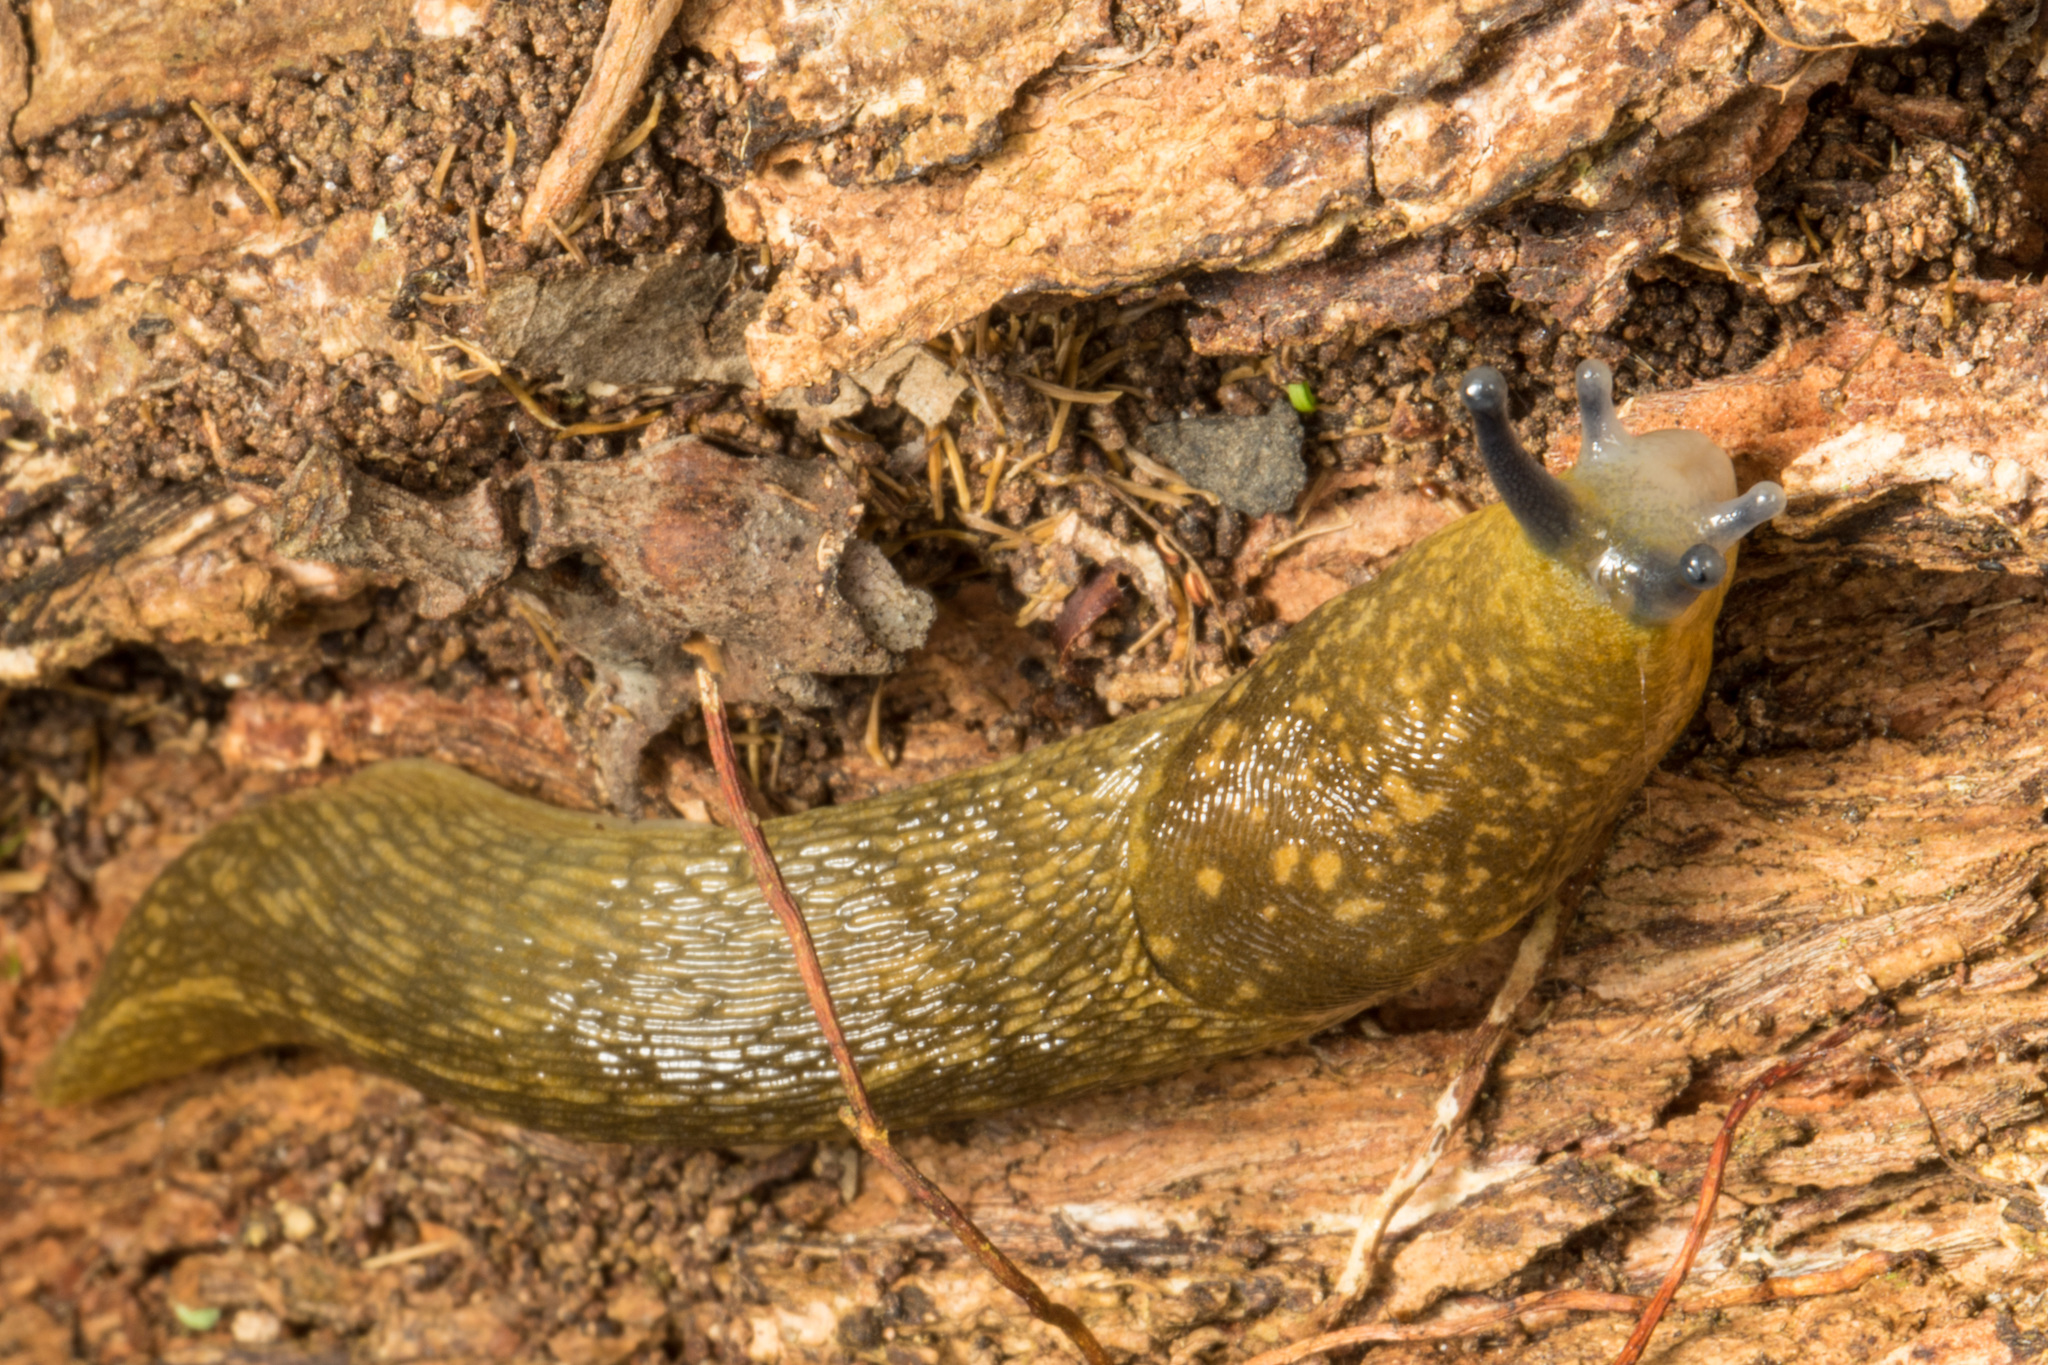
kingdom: Animalia
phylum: Mollusca
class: Gastropoda
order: Stylommatophora
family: Limacidae
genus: Limacus
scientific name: Limacus flavus
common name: Yellow gardenslug
